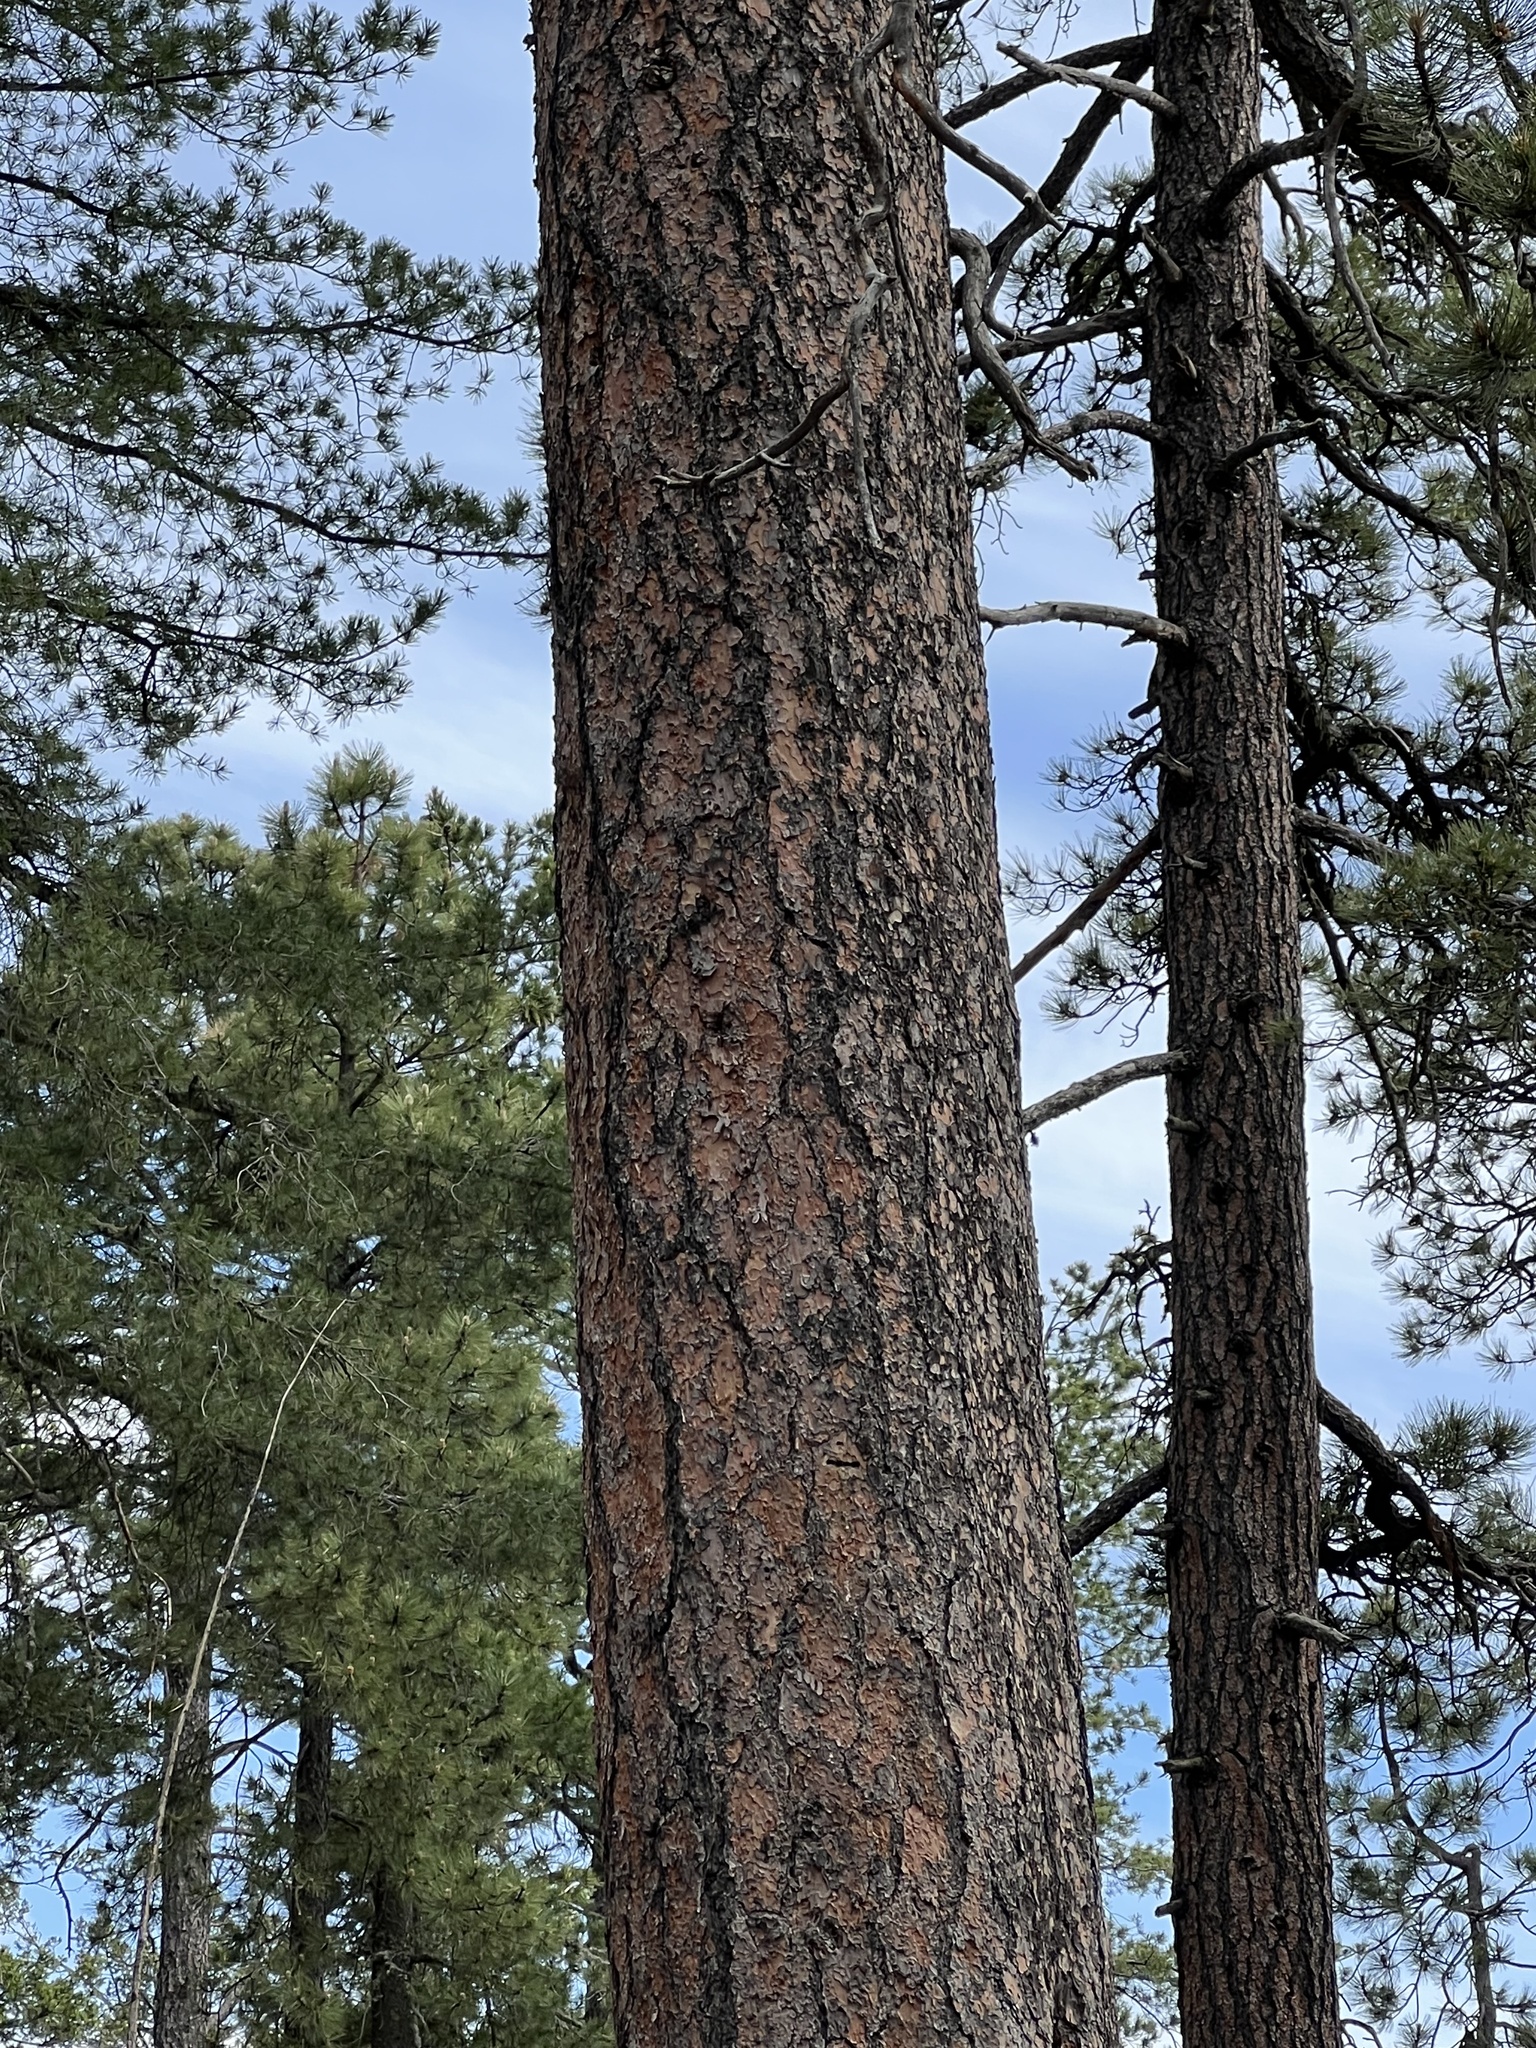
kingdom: Plantae
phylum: Tracheophyta
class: Pinopsida
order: Pinales
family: Pinaceae
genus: Pinus
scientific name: Pinus ponderosa
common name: Western yellow-pine
